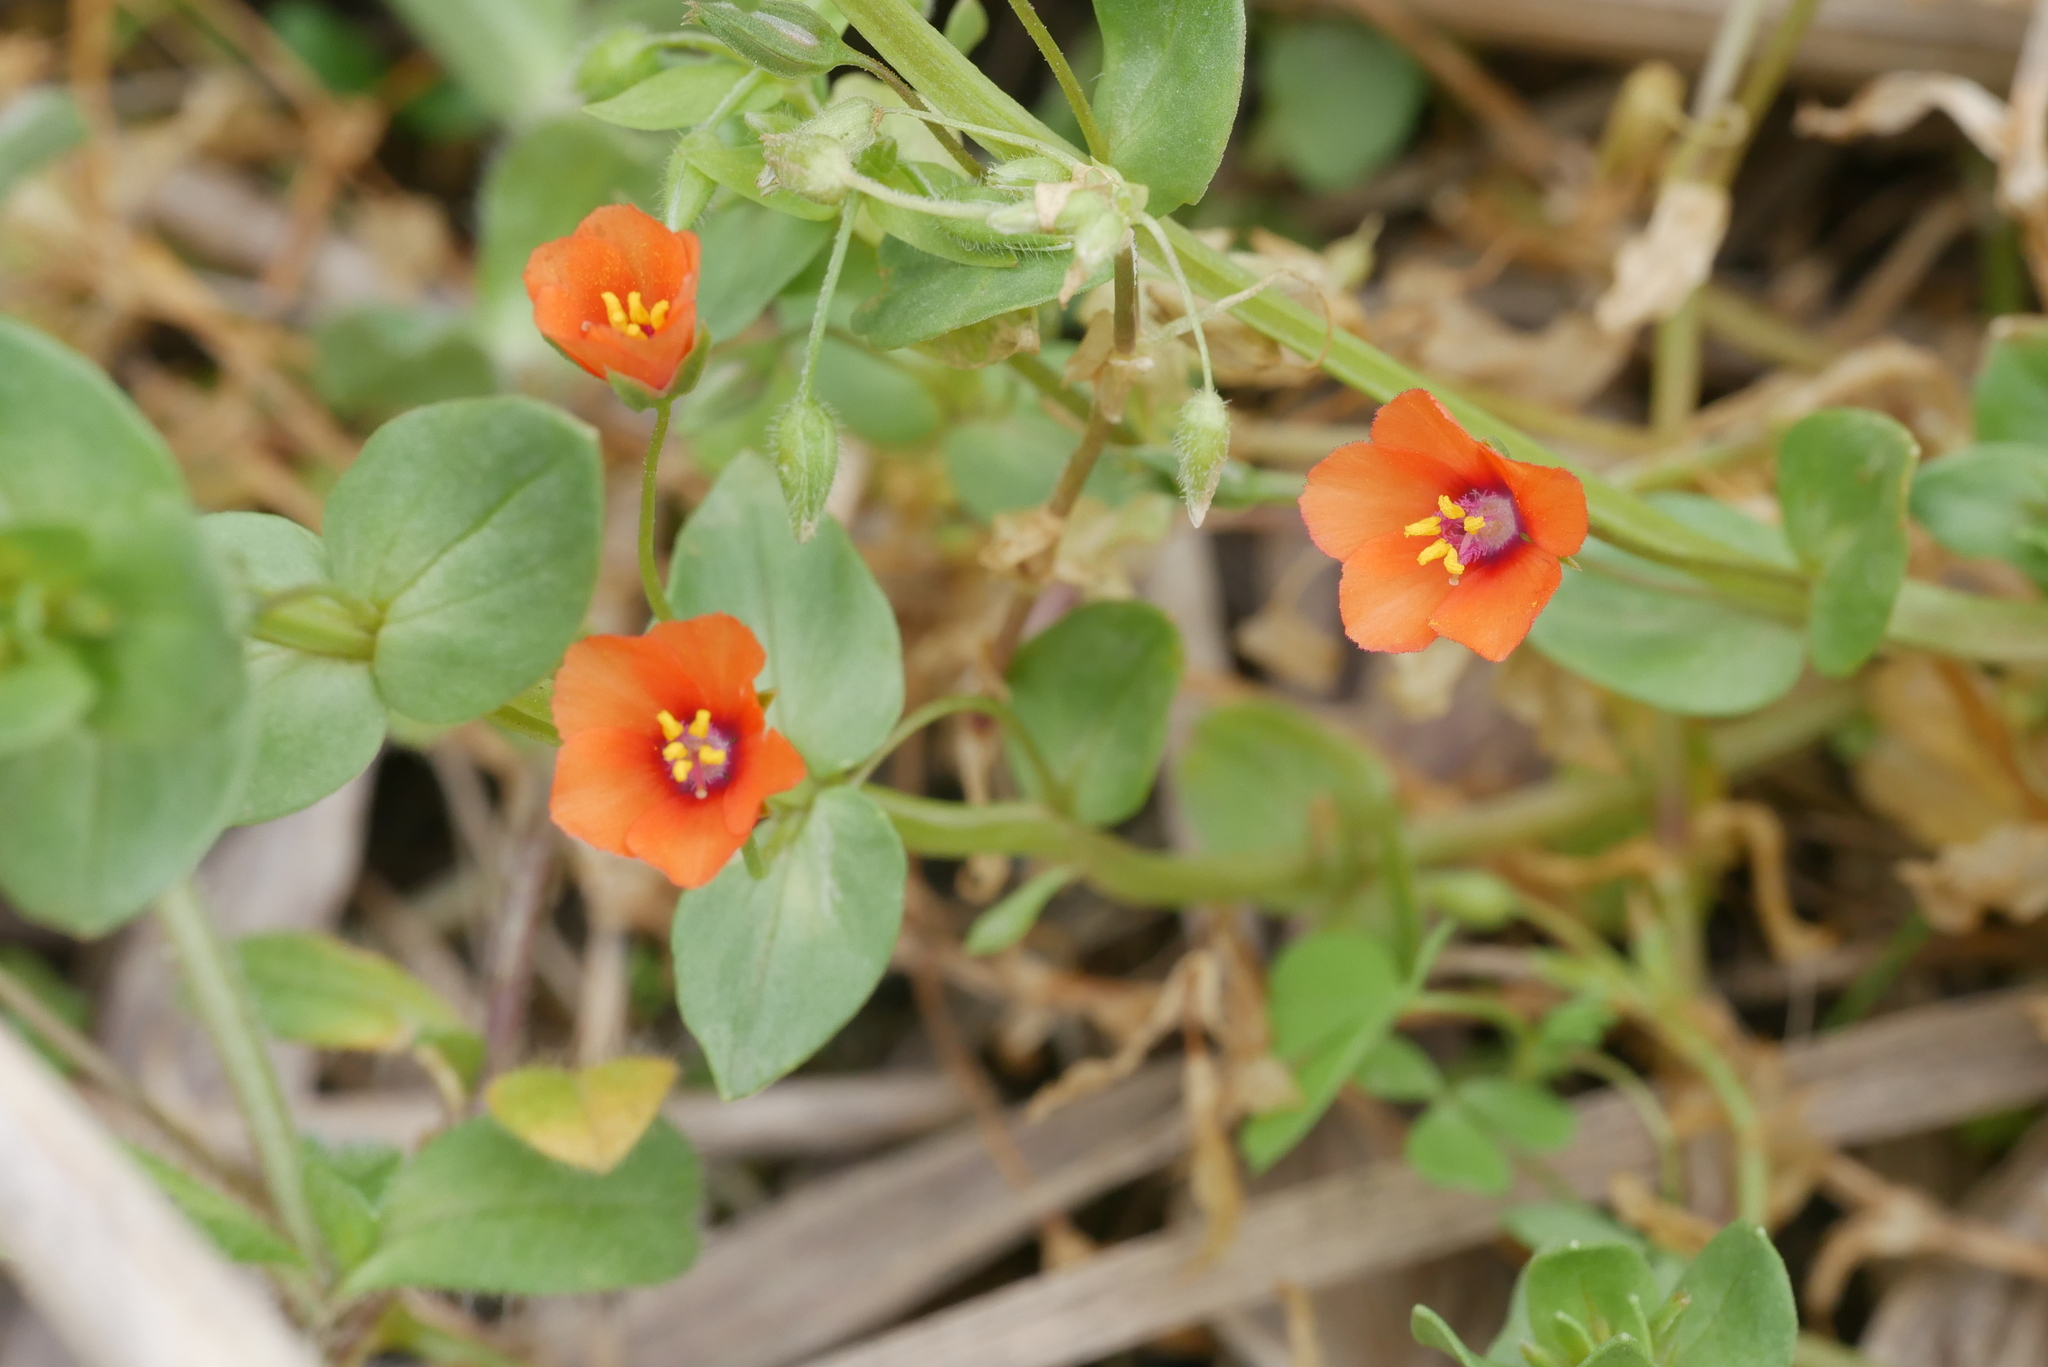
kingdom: Plantae
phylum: Tracheophyta
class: Magnoliopsida
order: Ericales
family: Primulaceae
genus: Lysimachia
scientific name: Lysimachia arvensis
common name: Scarlet pimpernel
